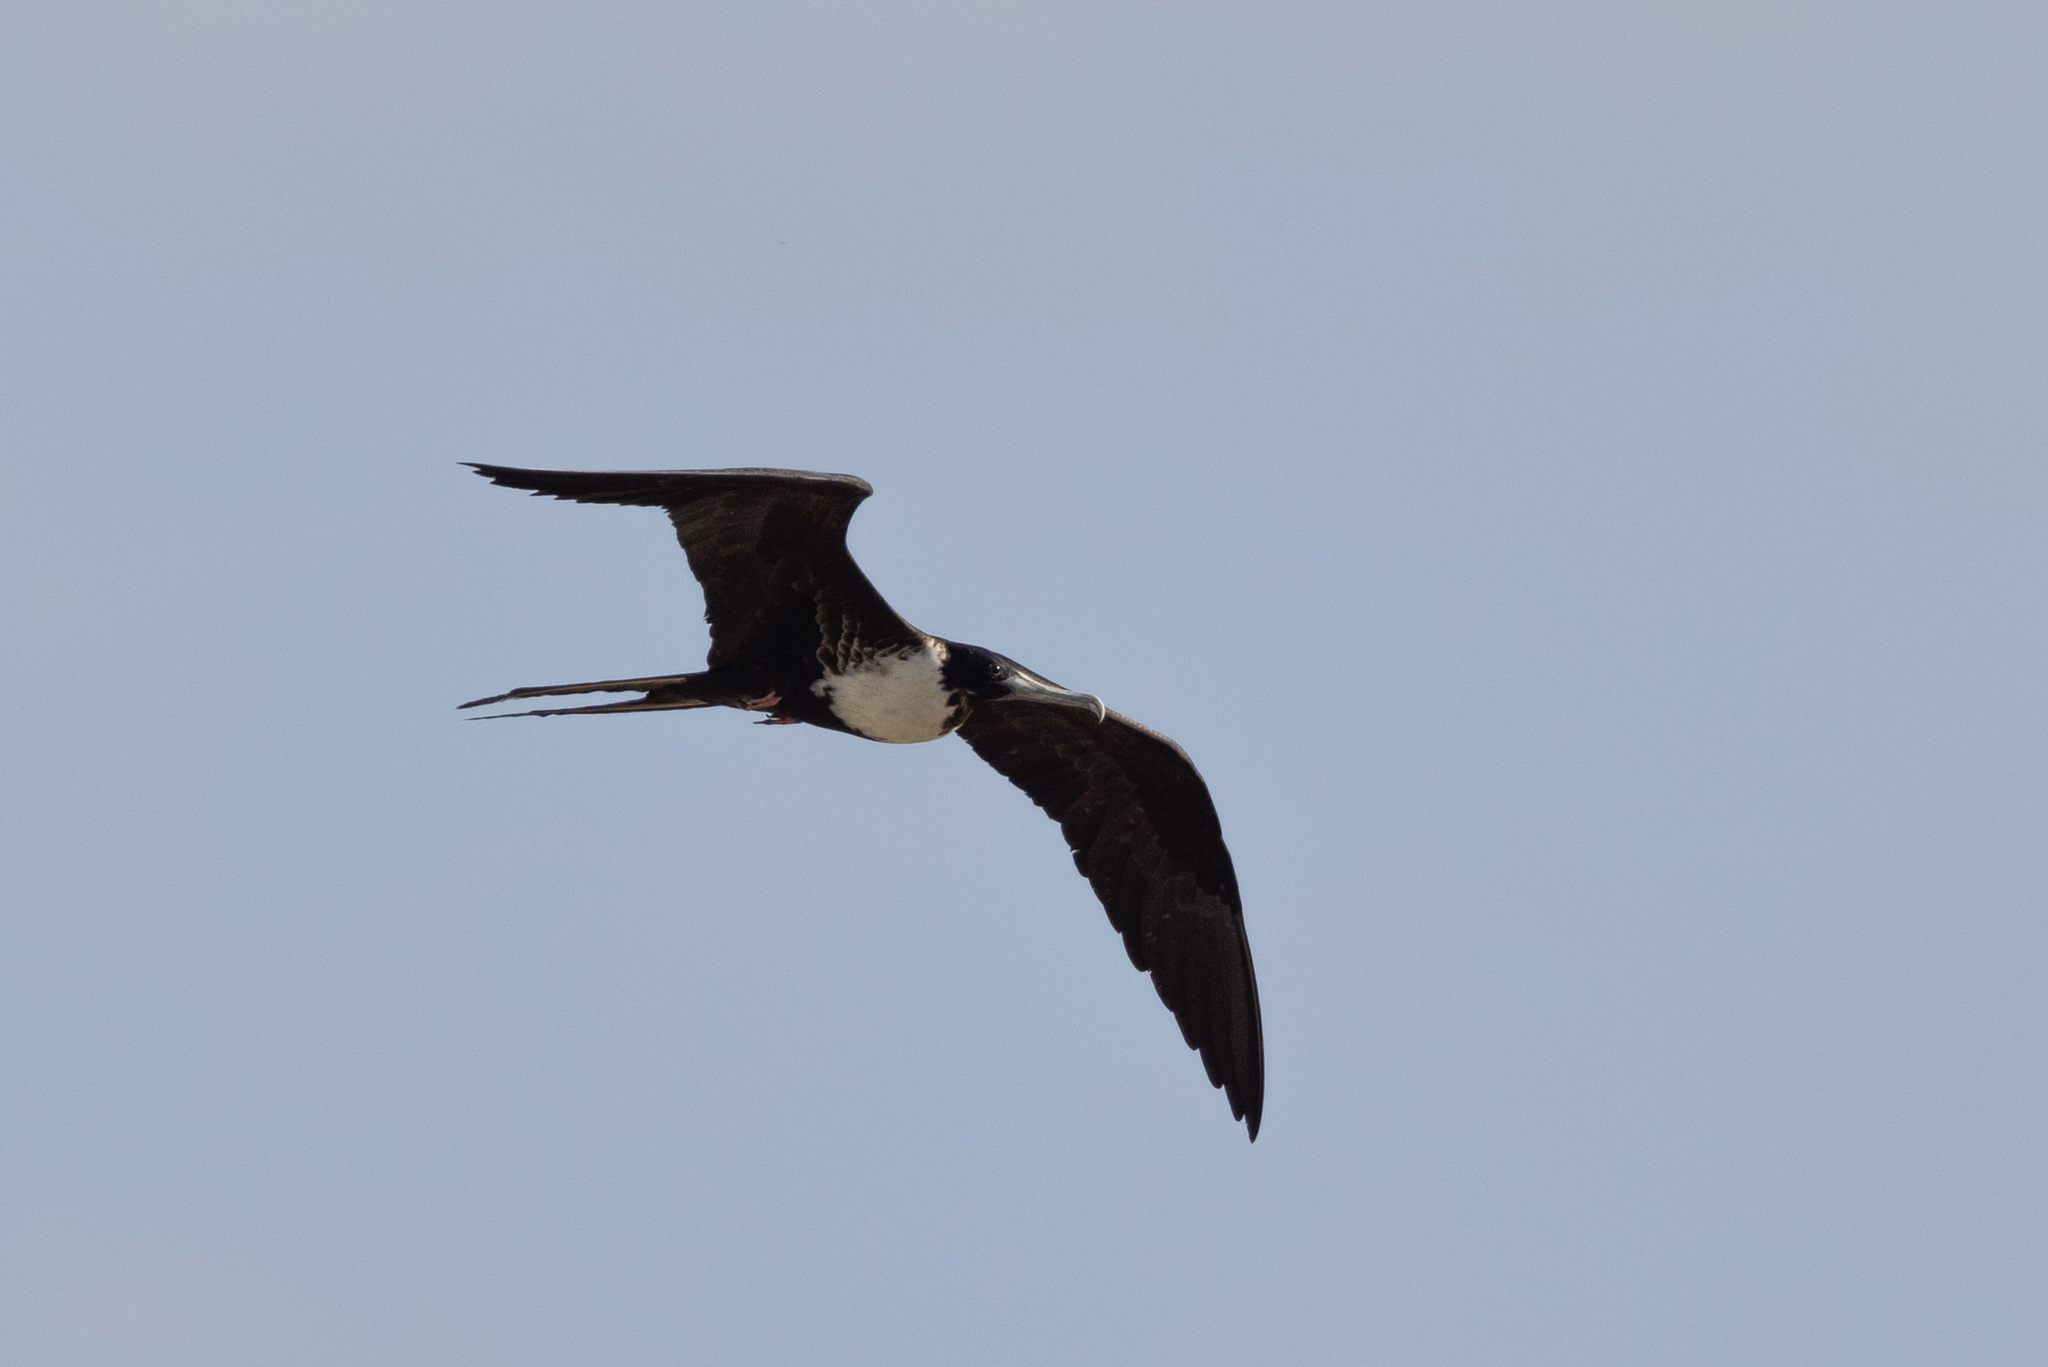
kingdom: Animalia
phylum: Chordata
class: Aves
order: Suliformes
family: Fregatidae
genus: Fregata
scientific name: Fregata magnificens
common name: Magnificent frigatebird
